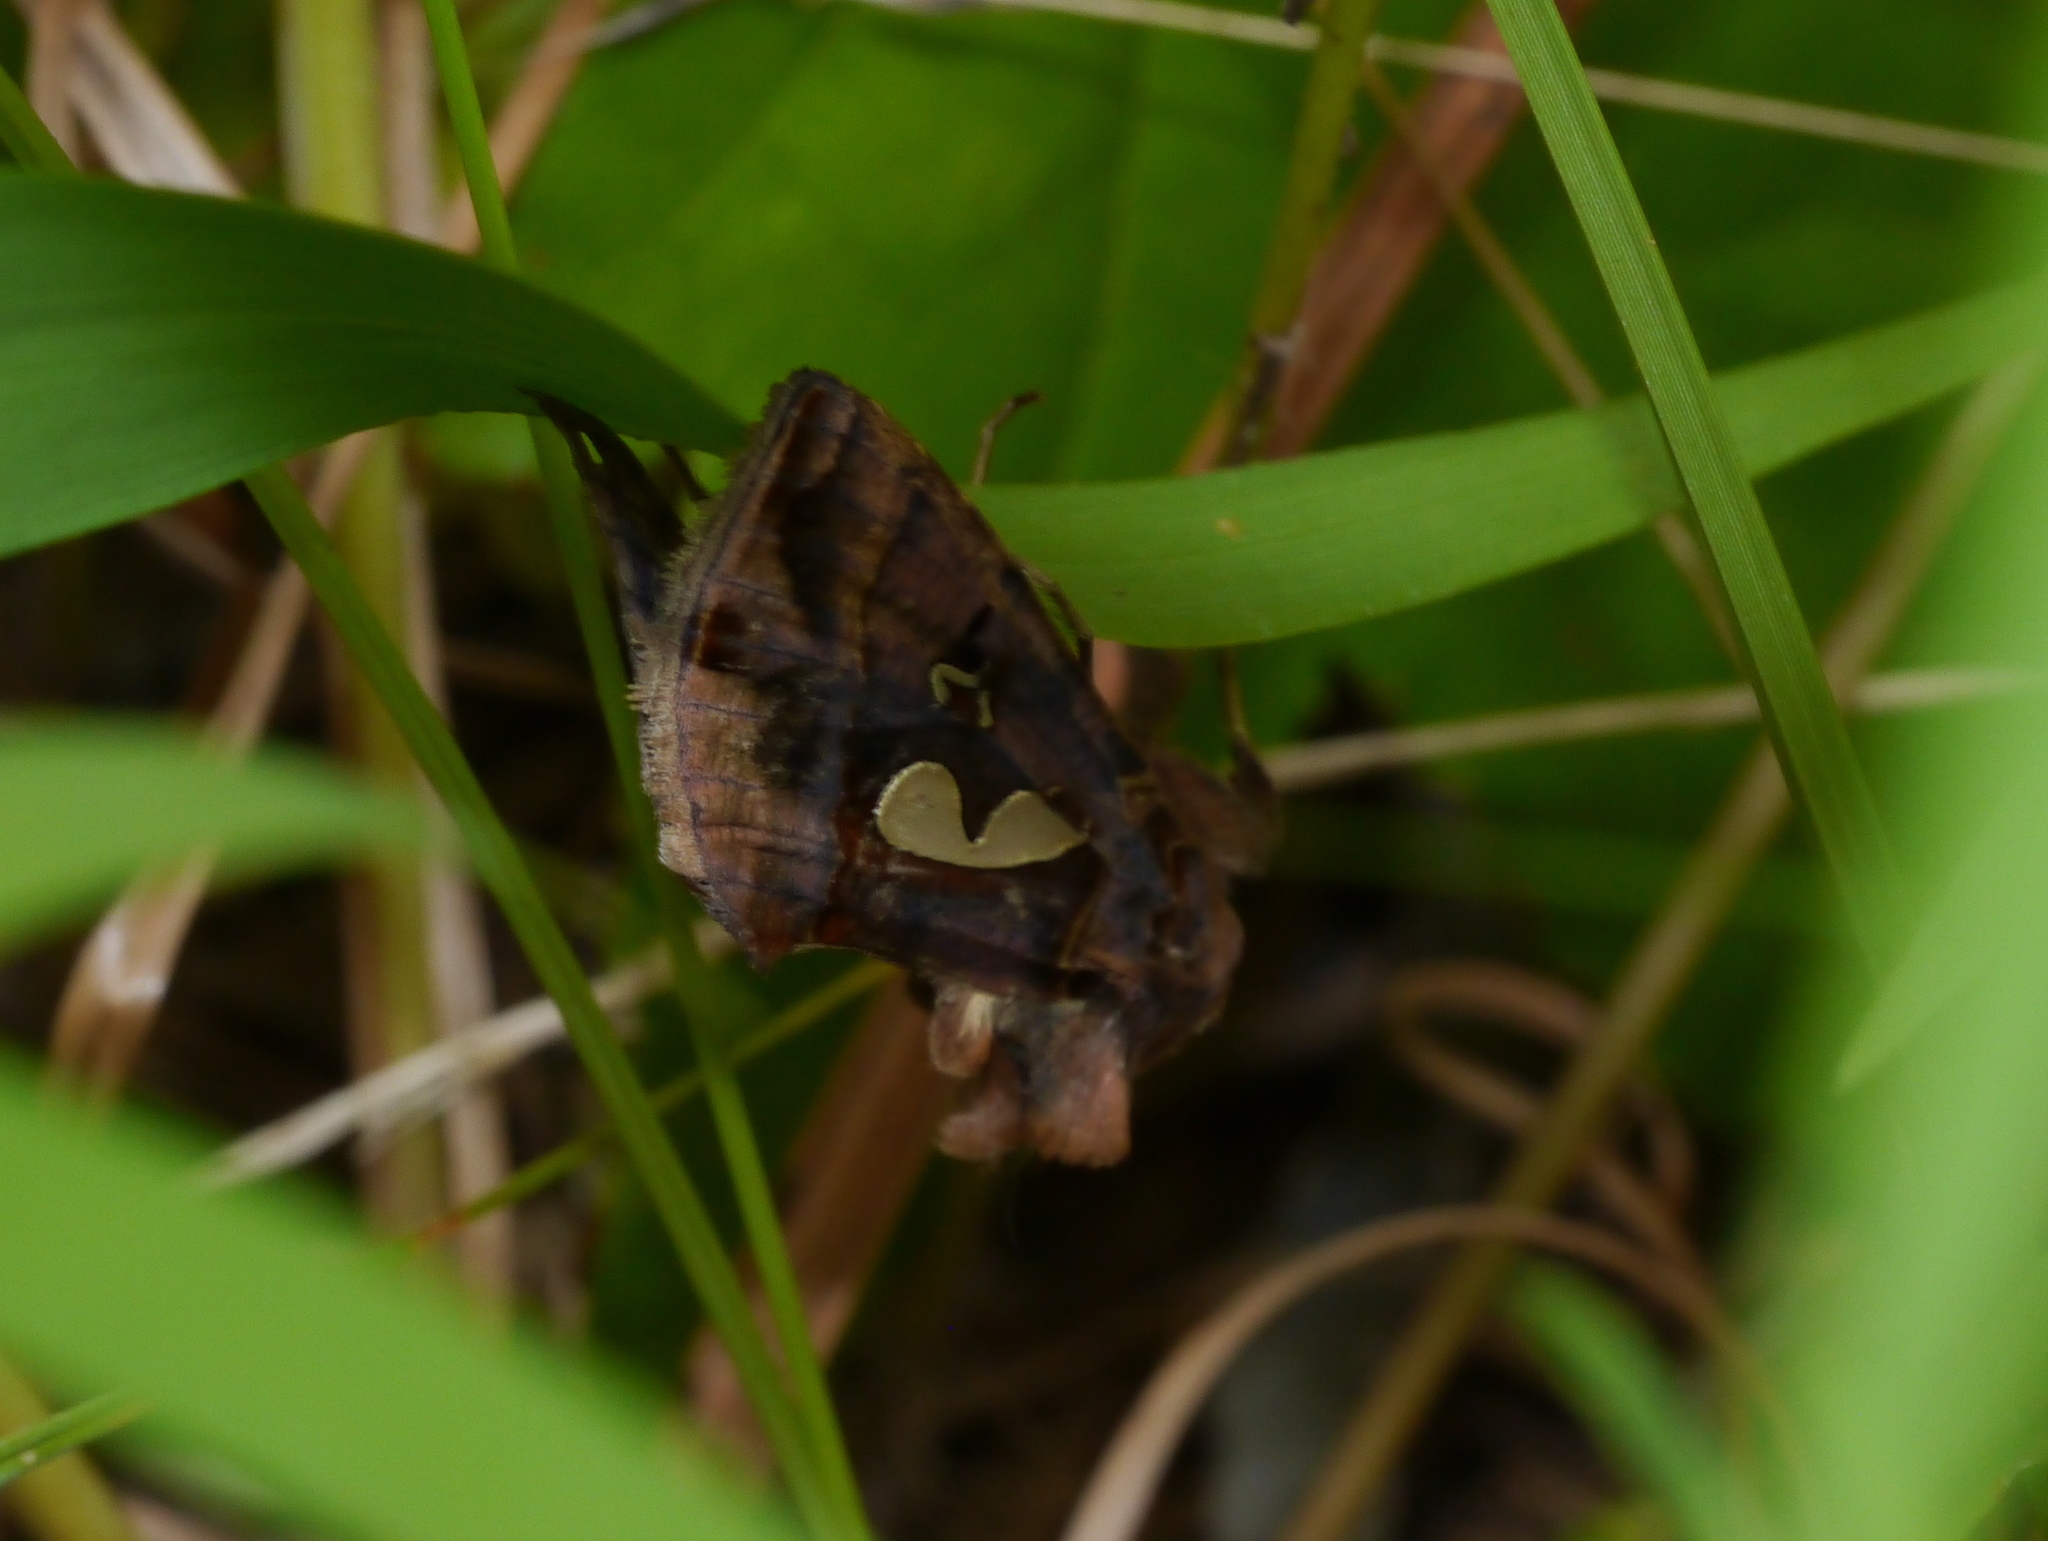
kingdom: Animalia
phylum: Arthropoda
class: Insecta
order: Lepidoptera
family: Noctuidae
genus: Megalographa
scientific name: Megalographa biloba
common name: Cutworm
